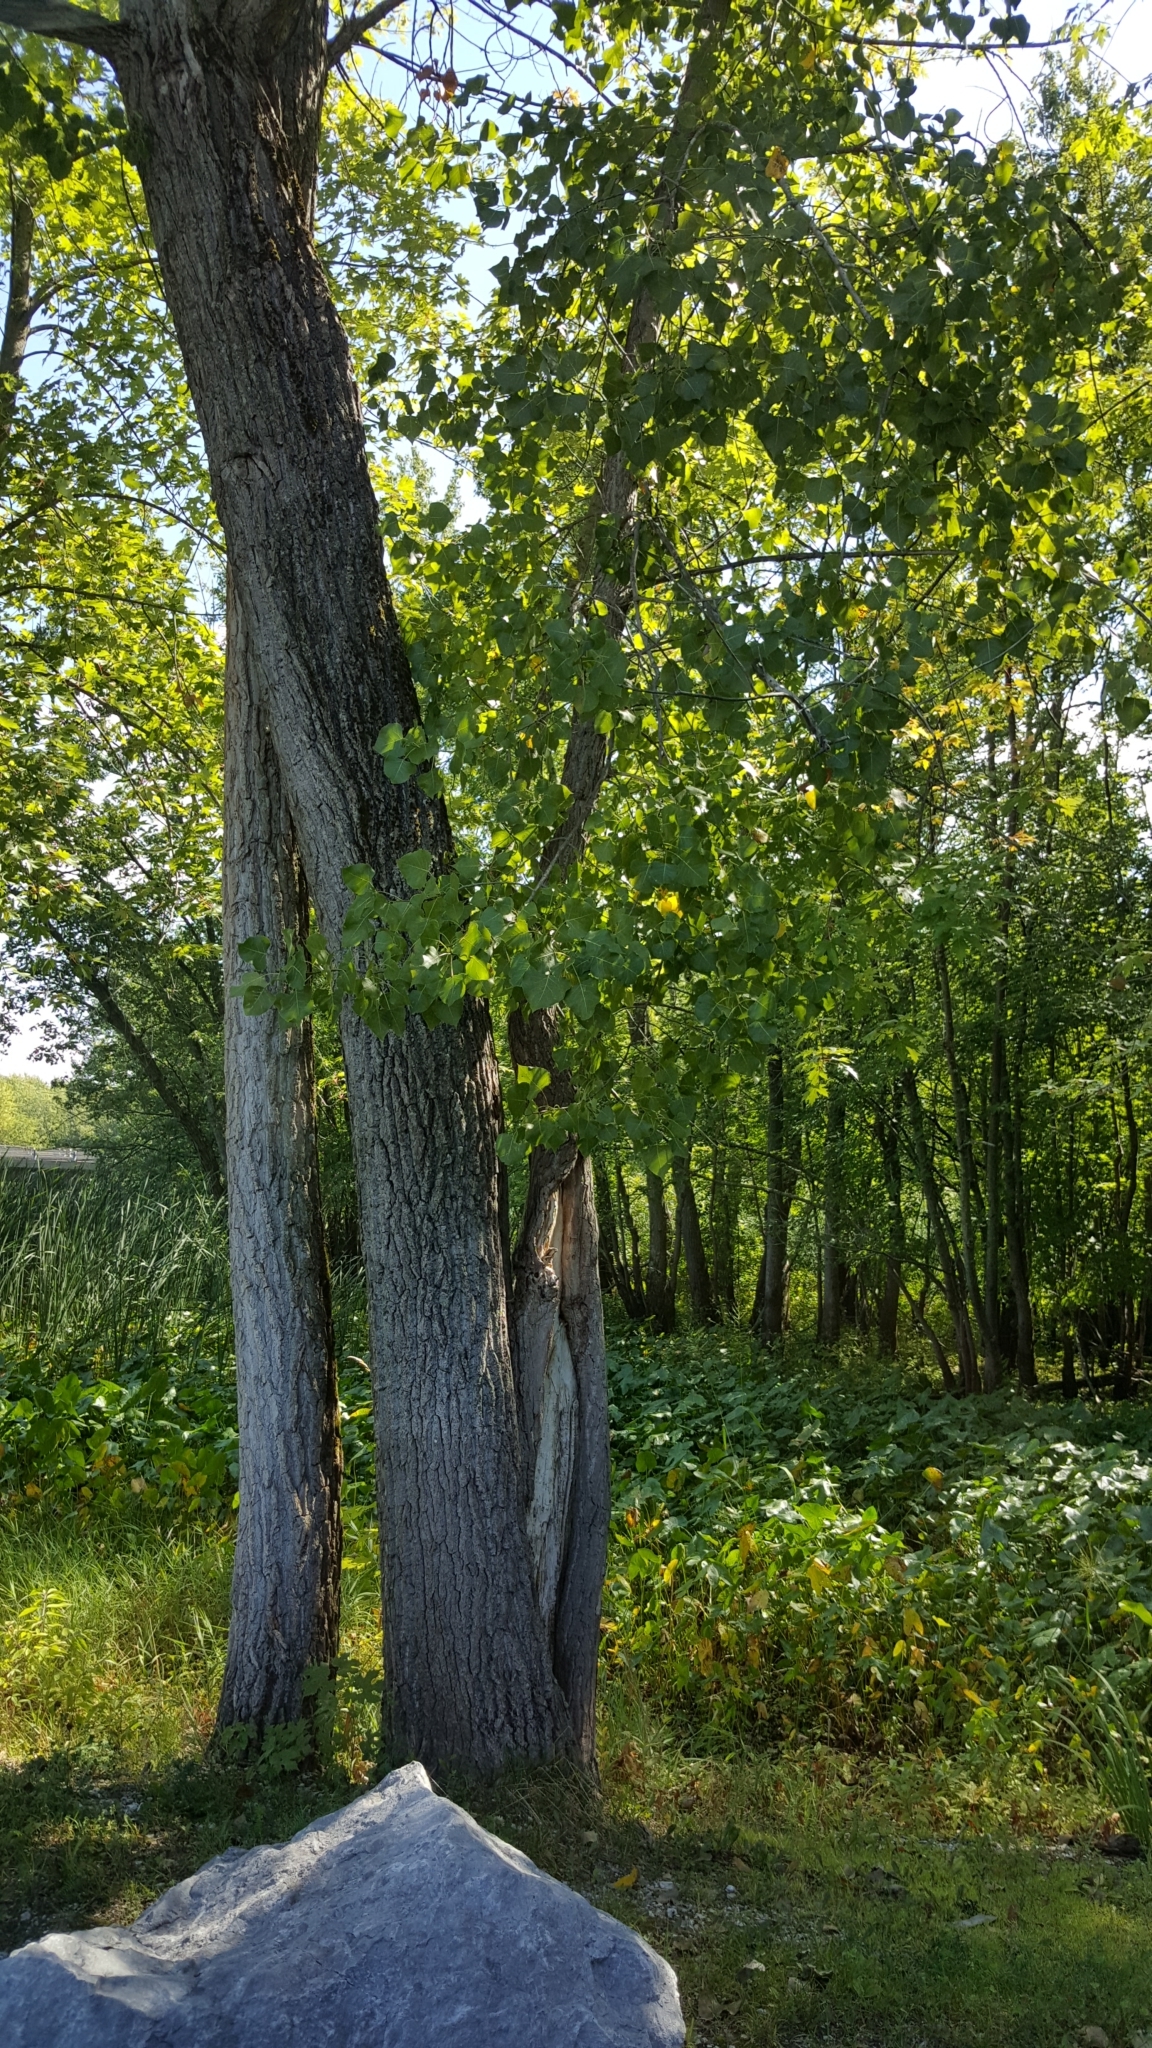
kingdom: Plantae
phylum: Tracheophyta
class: Magnoliopsida
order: Malpighiales
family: Salicaceae
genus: Populus
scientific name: Populus deltoides
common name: Eastern cottonwood
